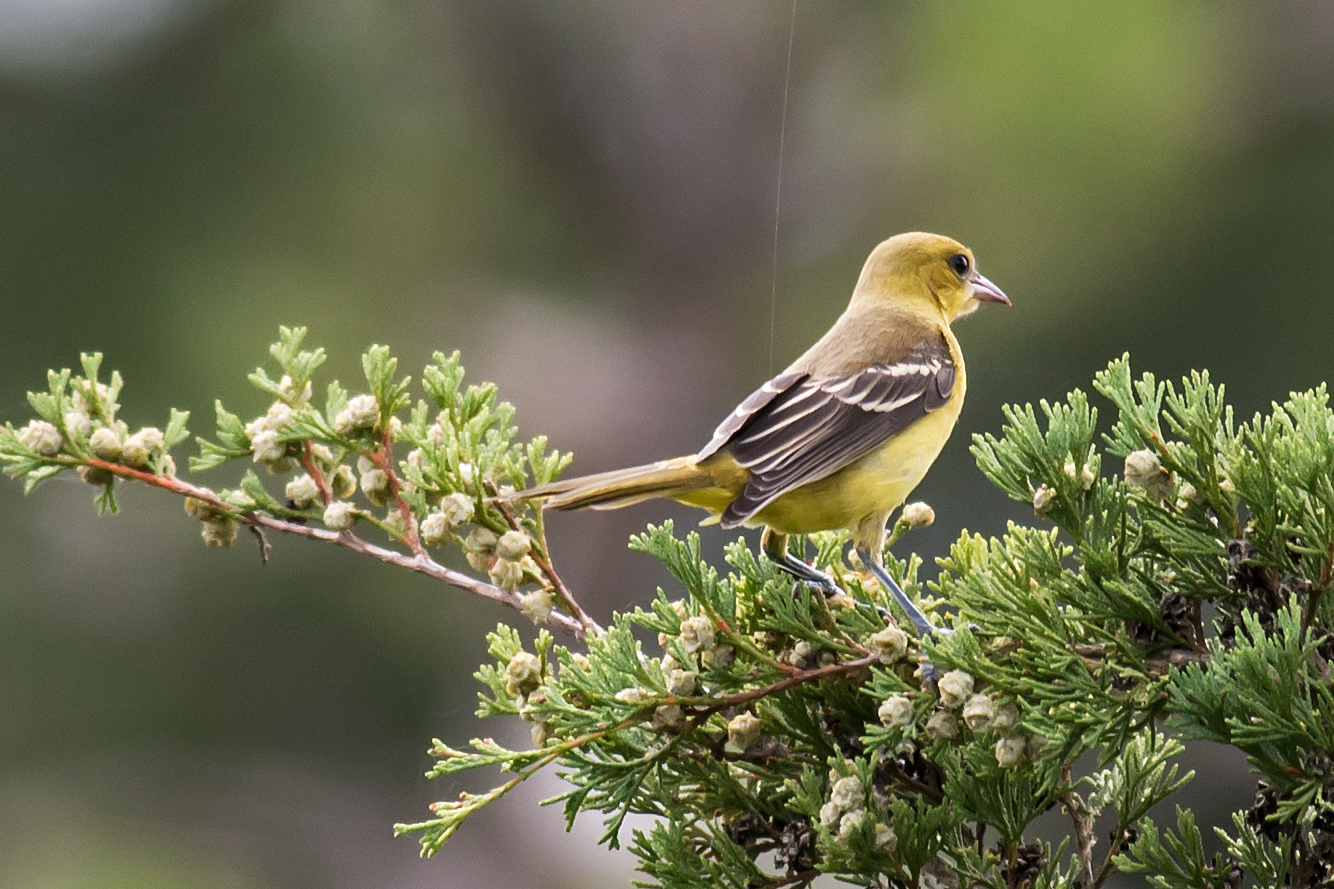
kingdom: Animalia
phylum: Chordata
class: Aves
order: Passeriformes
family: Icteridae
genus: Icterus
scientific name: Icterus spurius
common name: Orchard oriole
